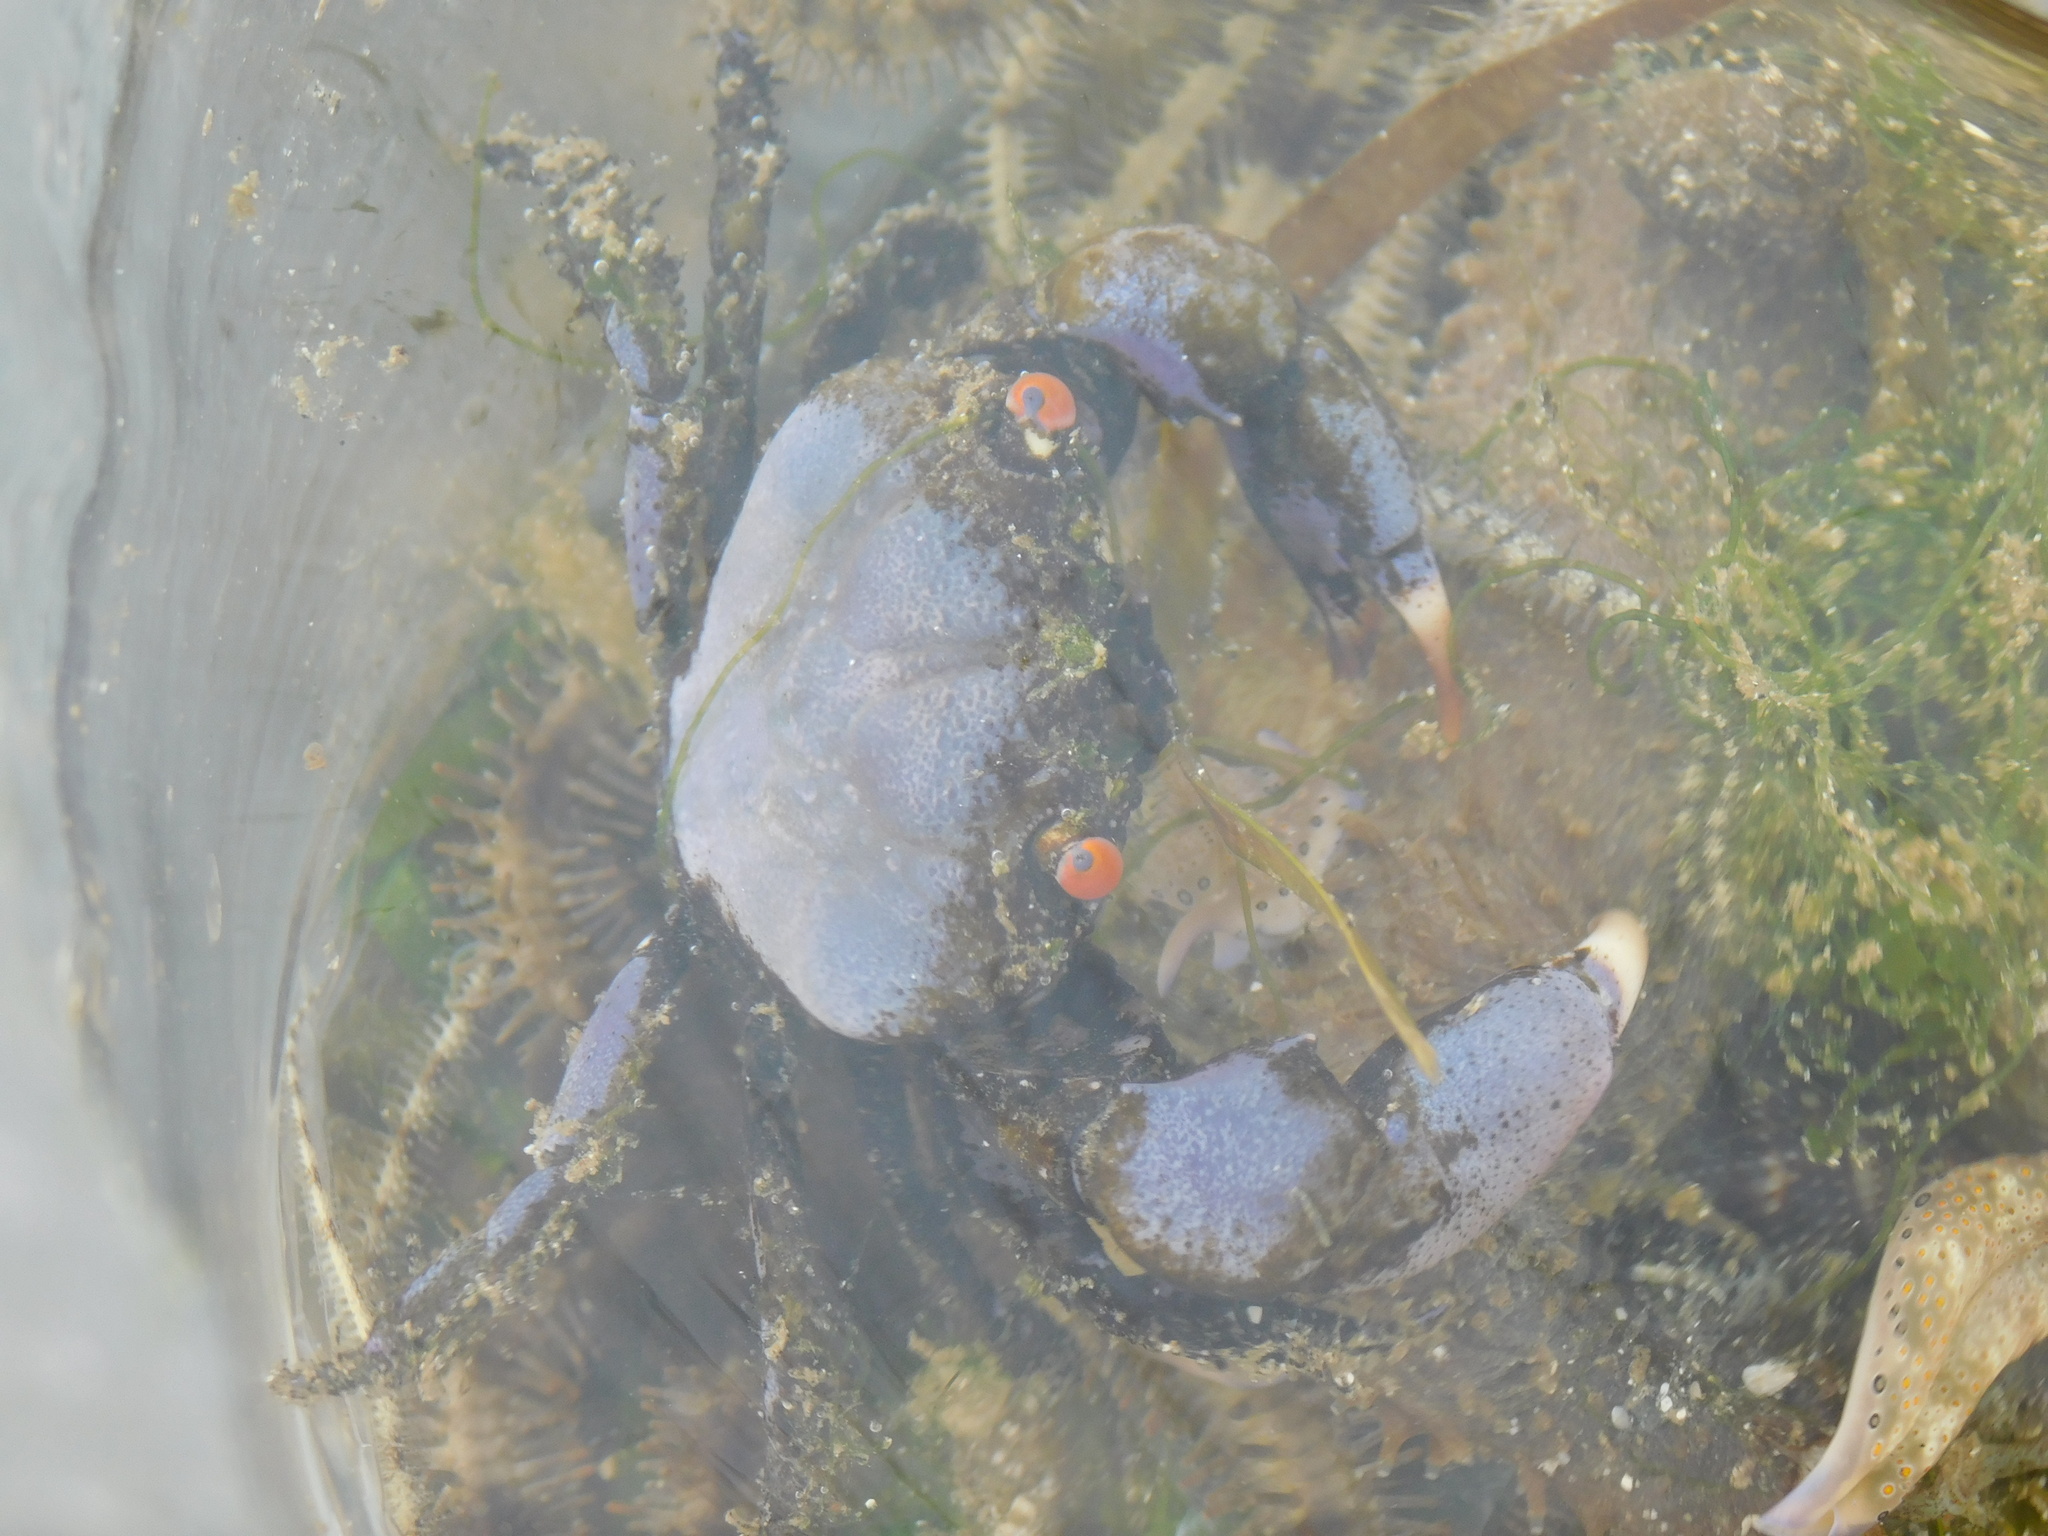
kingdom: Animalia
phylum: Arthropoda
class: Malacostraca
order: Decapoda
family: Eriphiidae
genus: Eriphia
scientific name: Eriphia sebana
